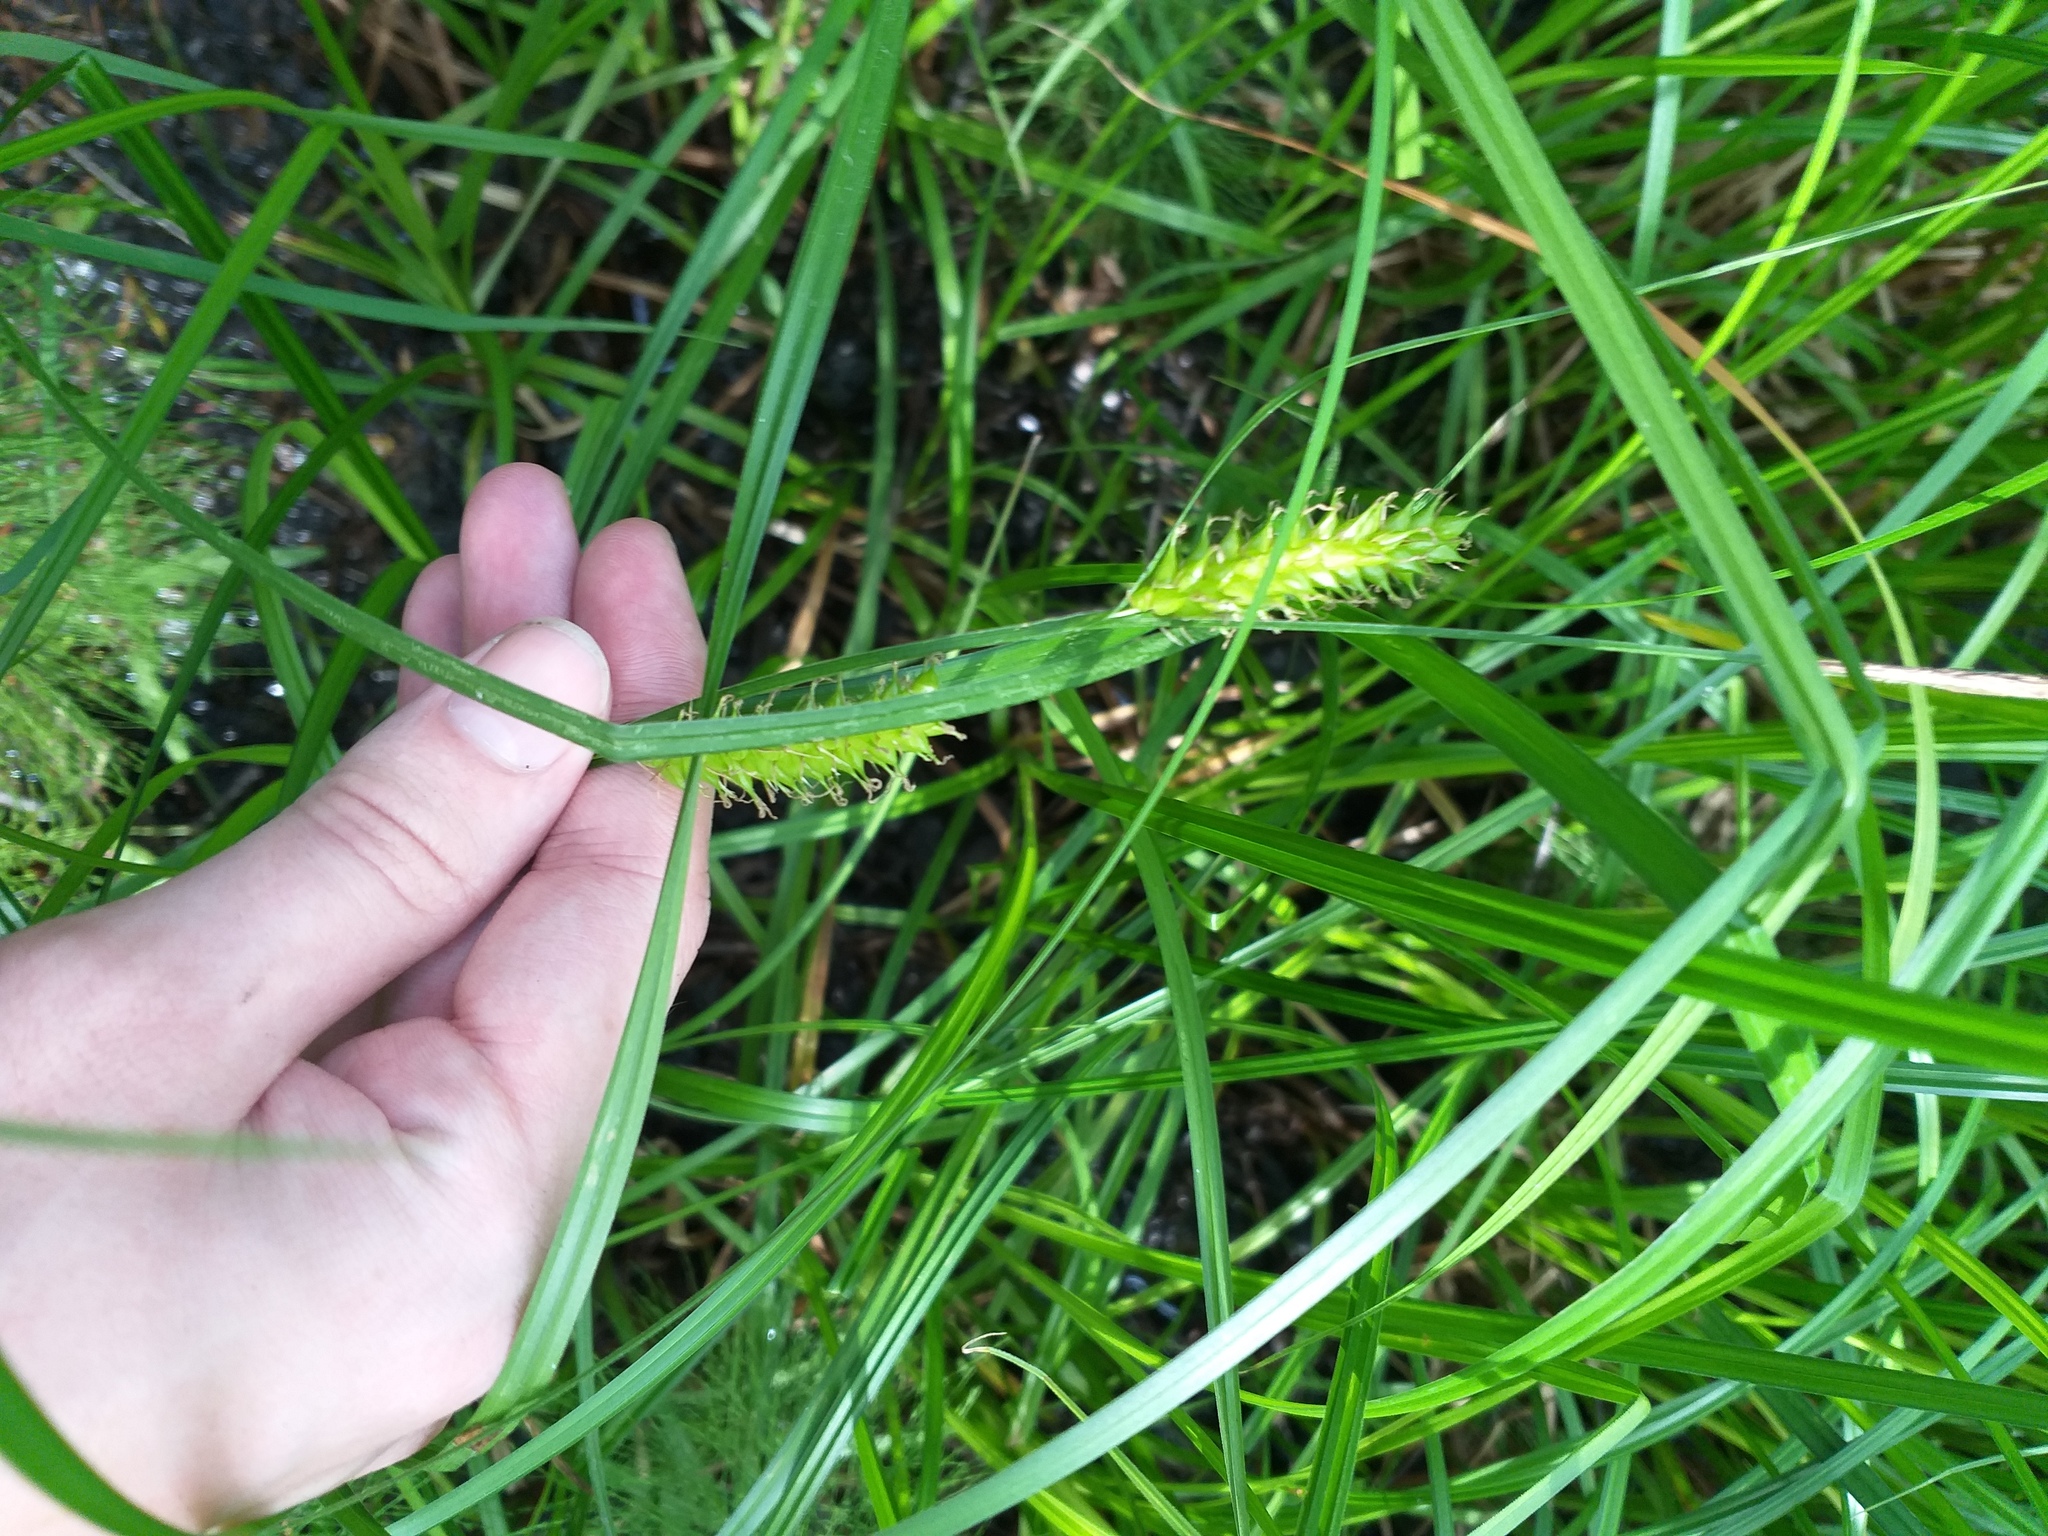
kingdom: Plantae
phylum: Tracheophyta
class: Liliopsida
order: Poales
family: Cyperaceae
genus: Carex
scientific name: Carex vesicaria
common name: Bladder-sedge
